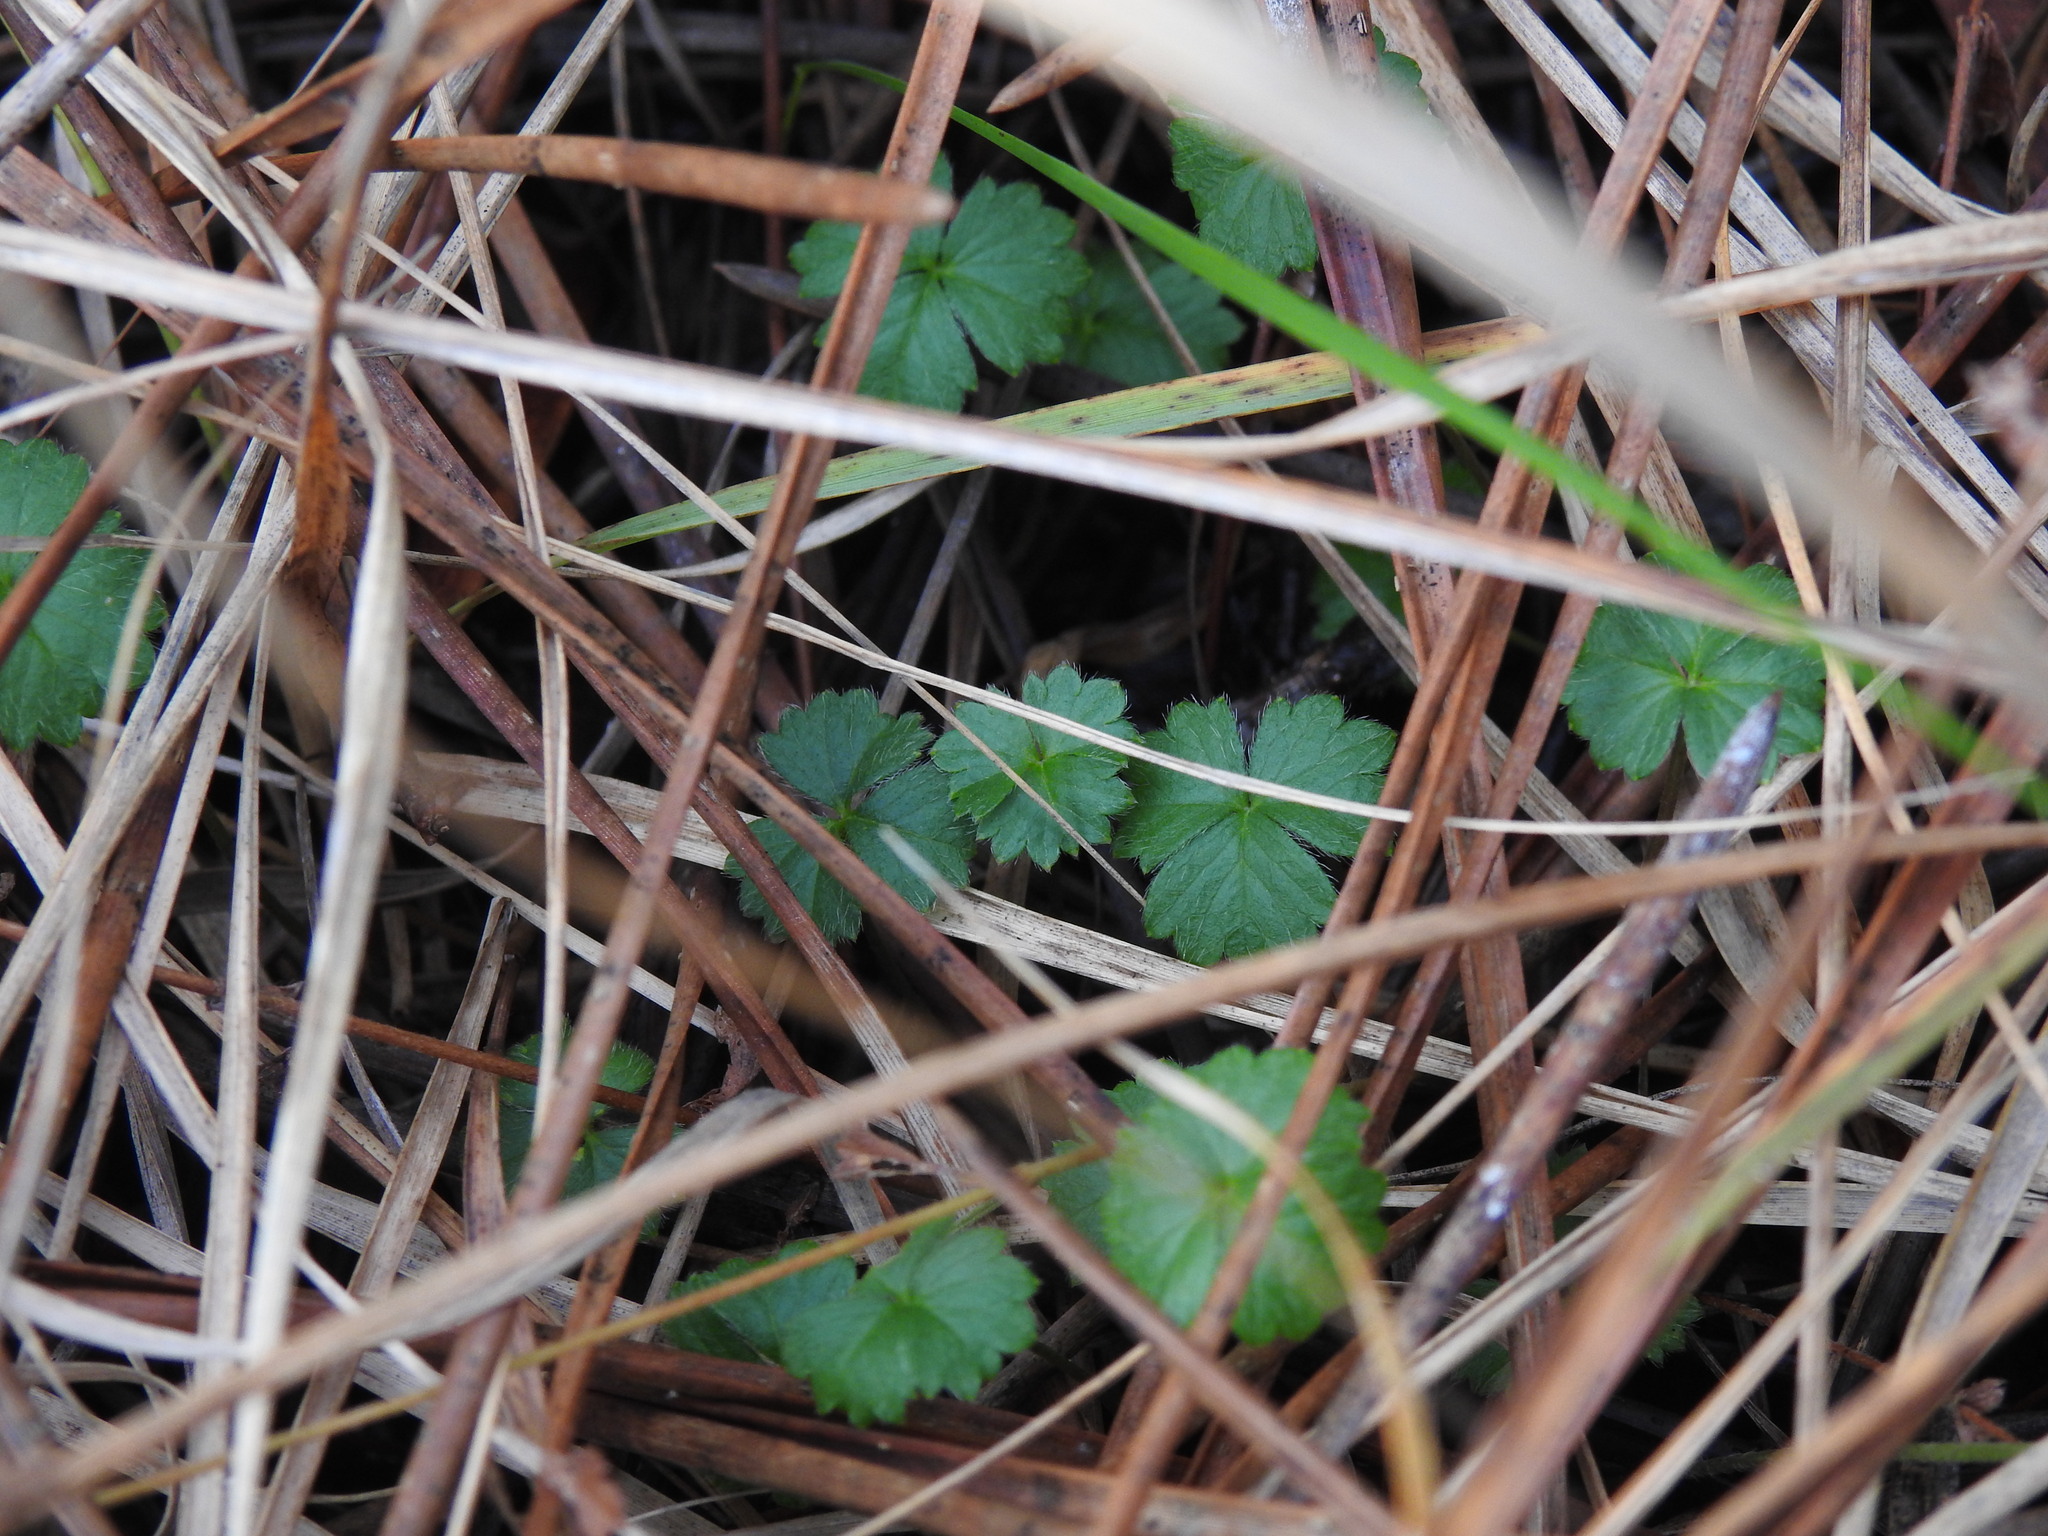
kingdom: Plantae
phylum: Tracheophyta
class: Magnoliopsida
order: Rosales
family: Rosaceae
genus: Potentilla
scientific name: Potentilla erecta
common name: Tormentil
